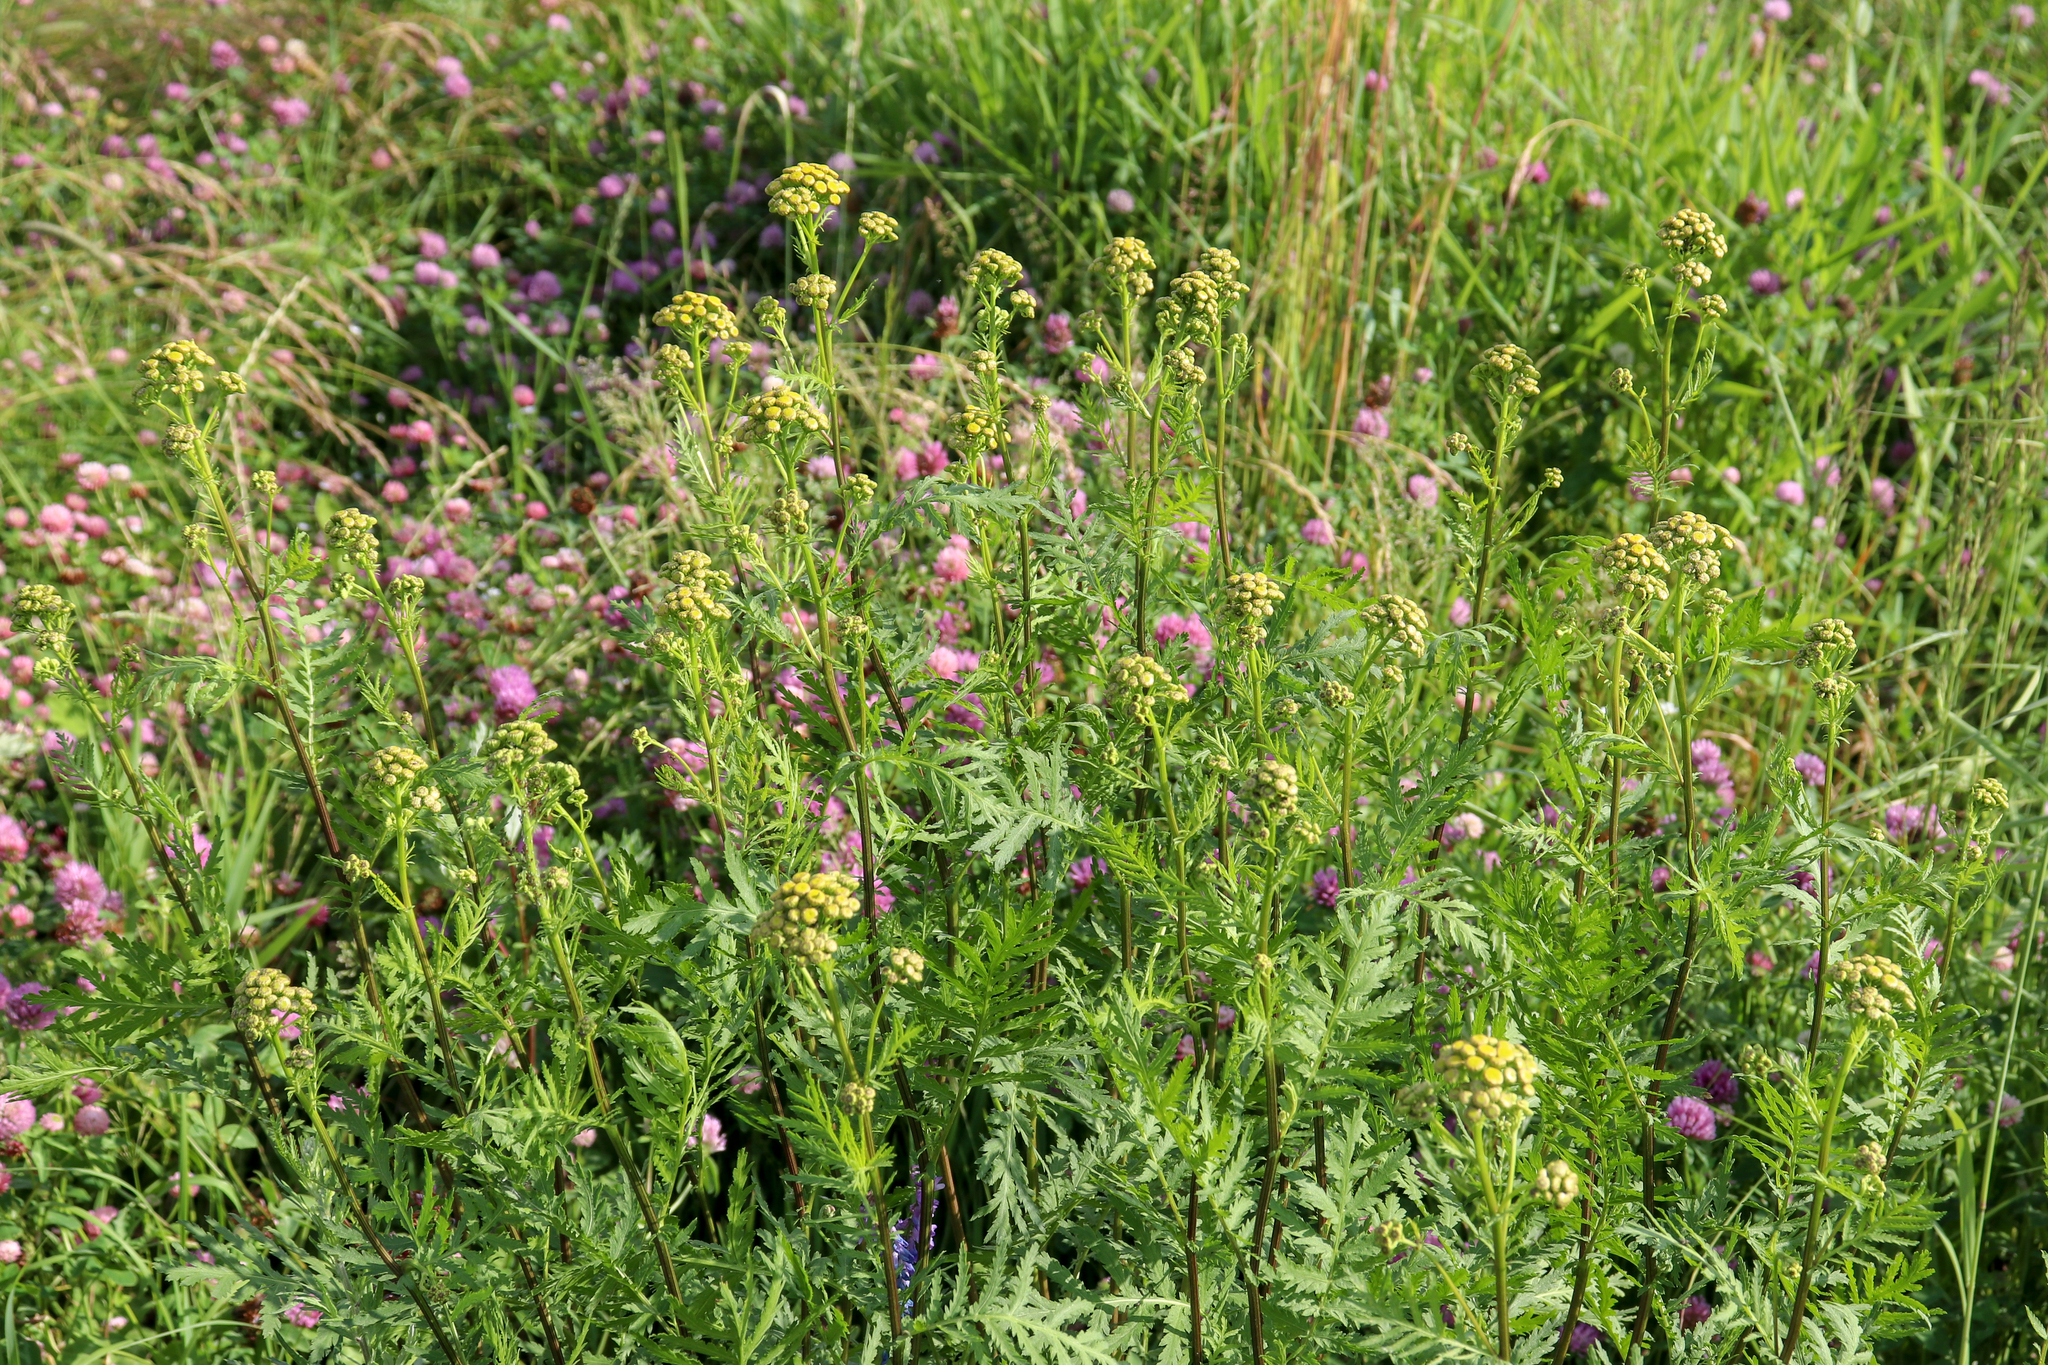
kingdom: Plantae
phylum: Tracheophyta
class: Magnoliopsida
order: Asterales
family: Asteraceae
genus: Tanacetum
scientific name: Tanacetum vulgare
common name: Common tansy
